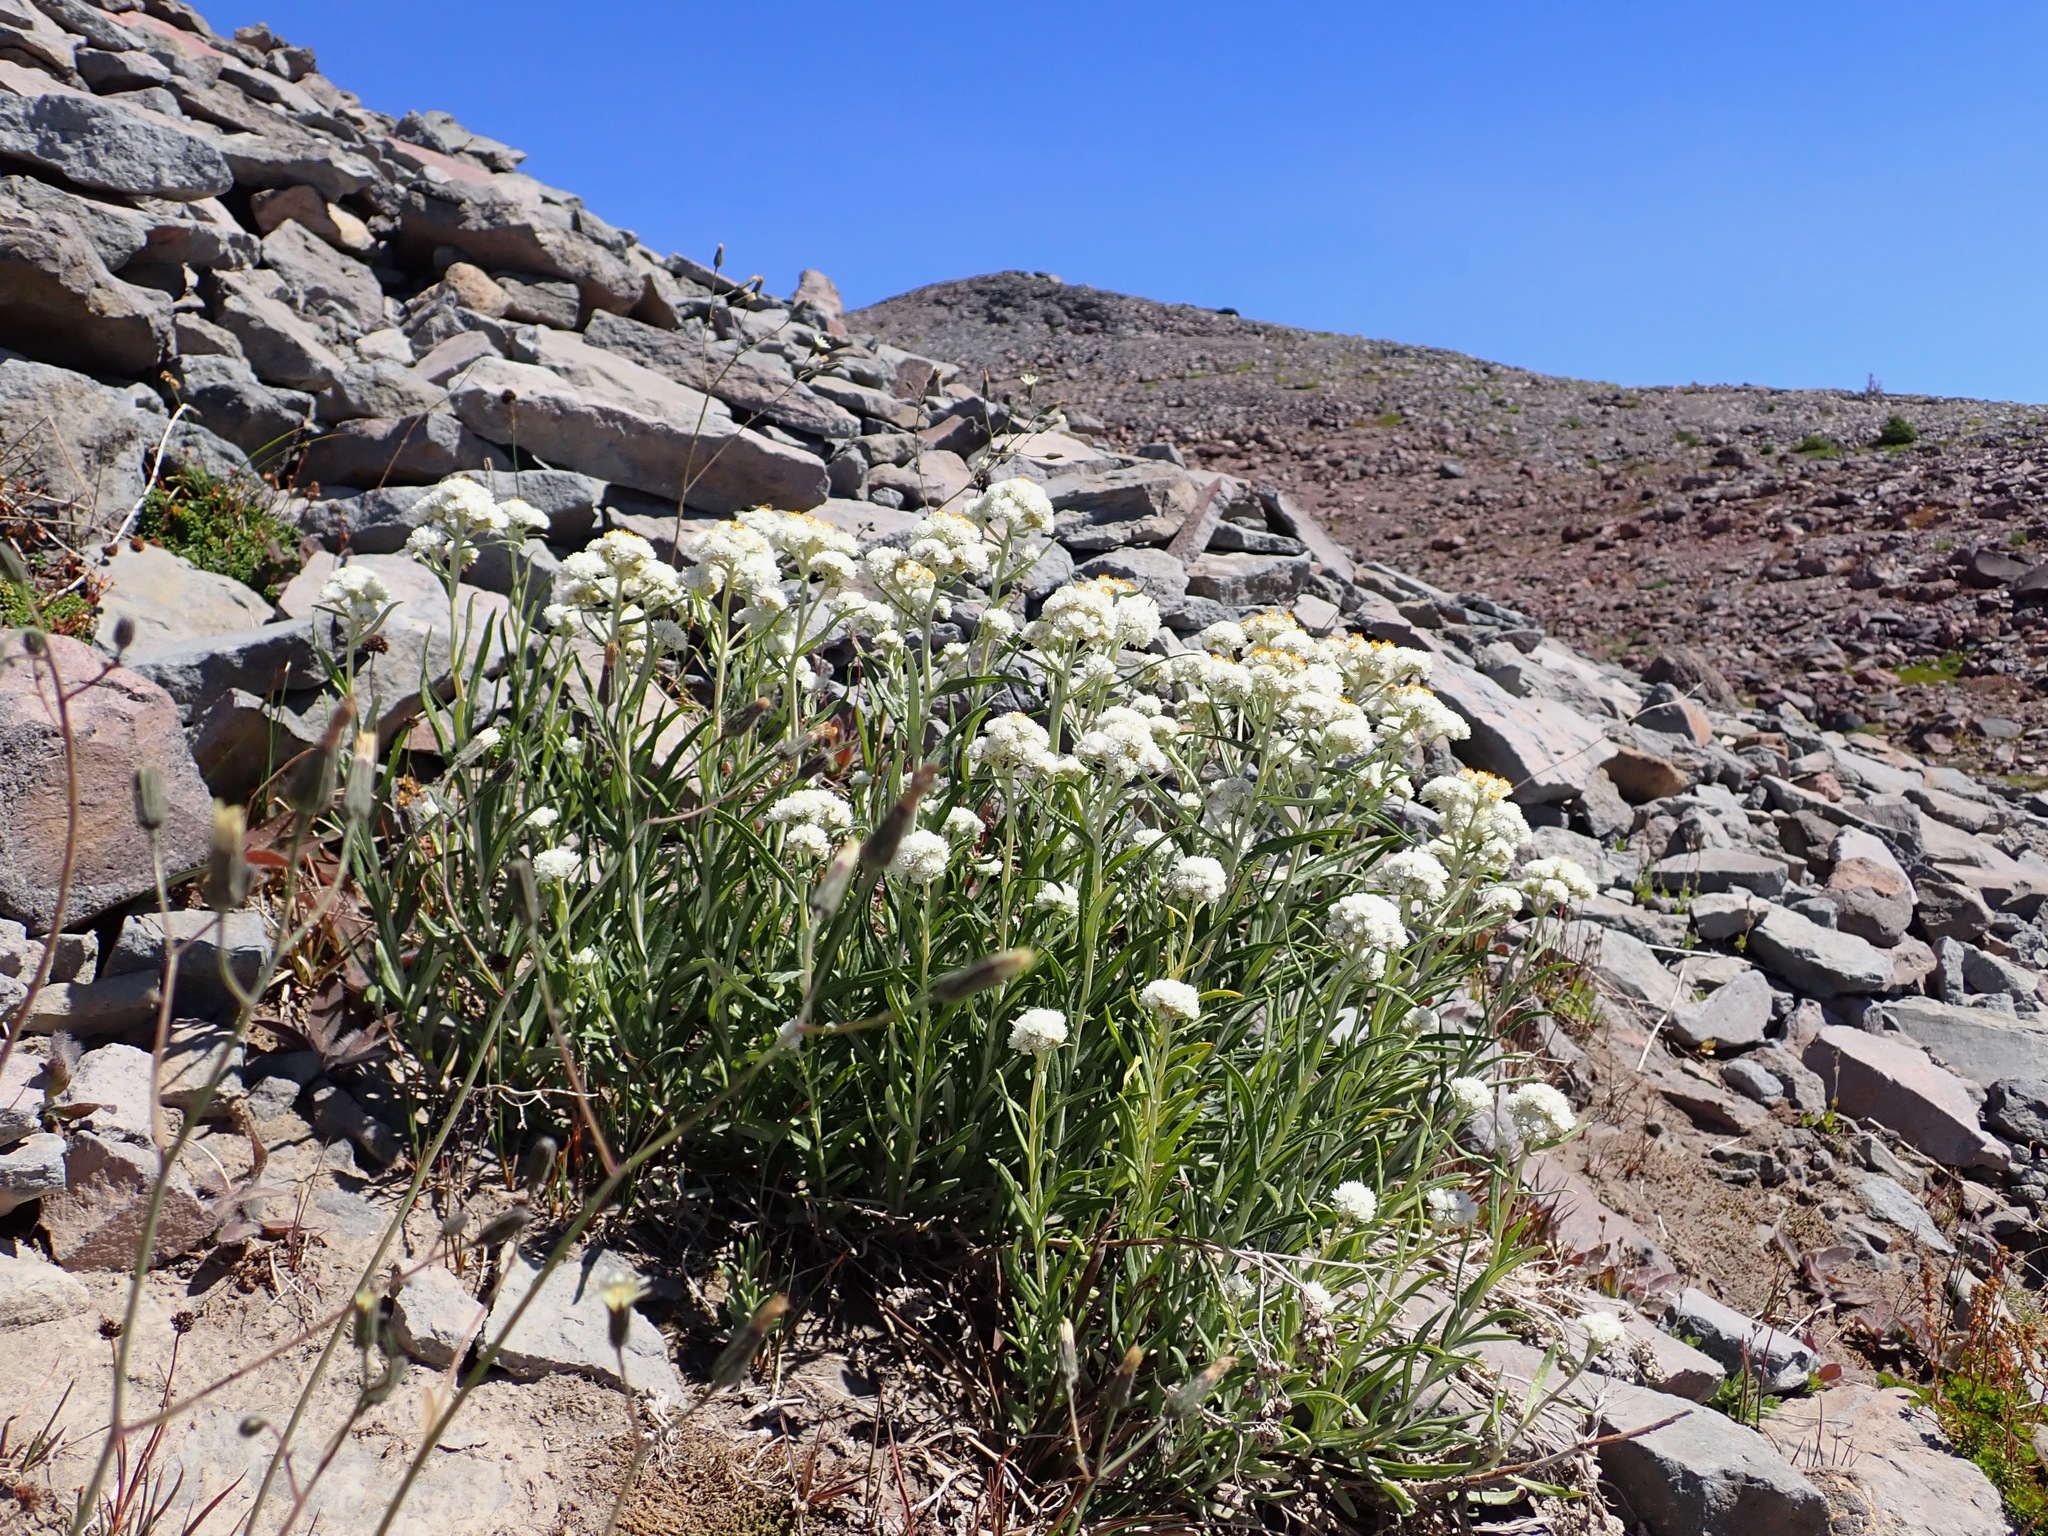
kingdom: Plantae
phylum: Tracheophyta
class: Magnoliopsida
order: Asterales
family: Asteraceae
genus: Anaphalis
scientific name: Anaphalis margaritacea
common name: Pearly everlasting
